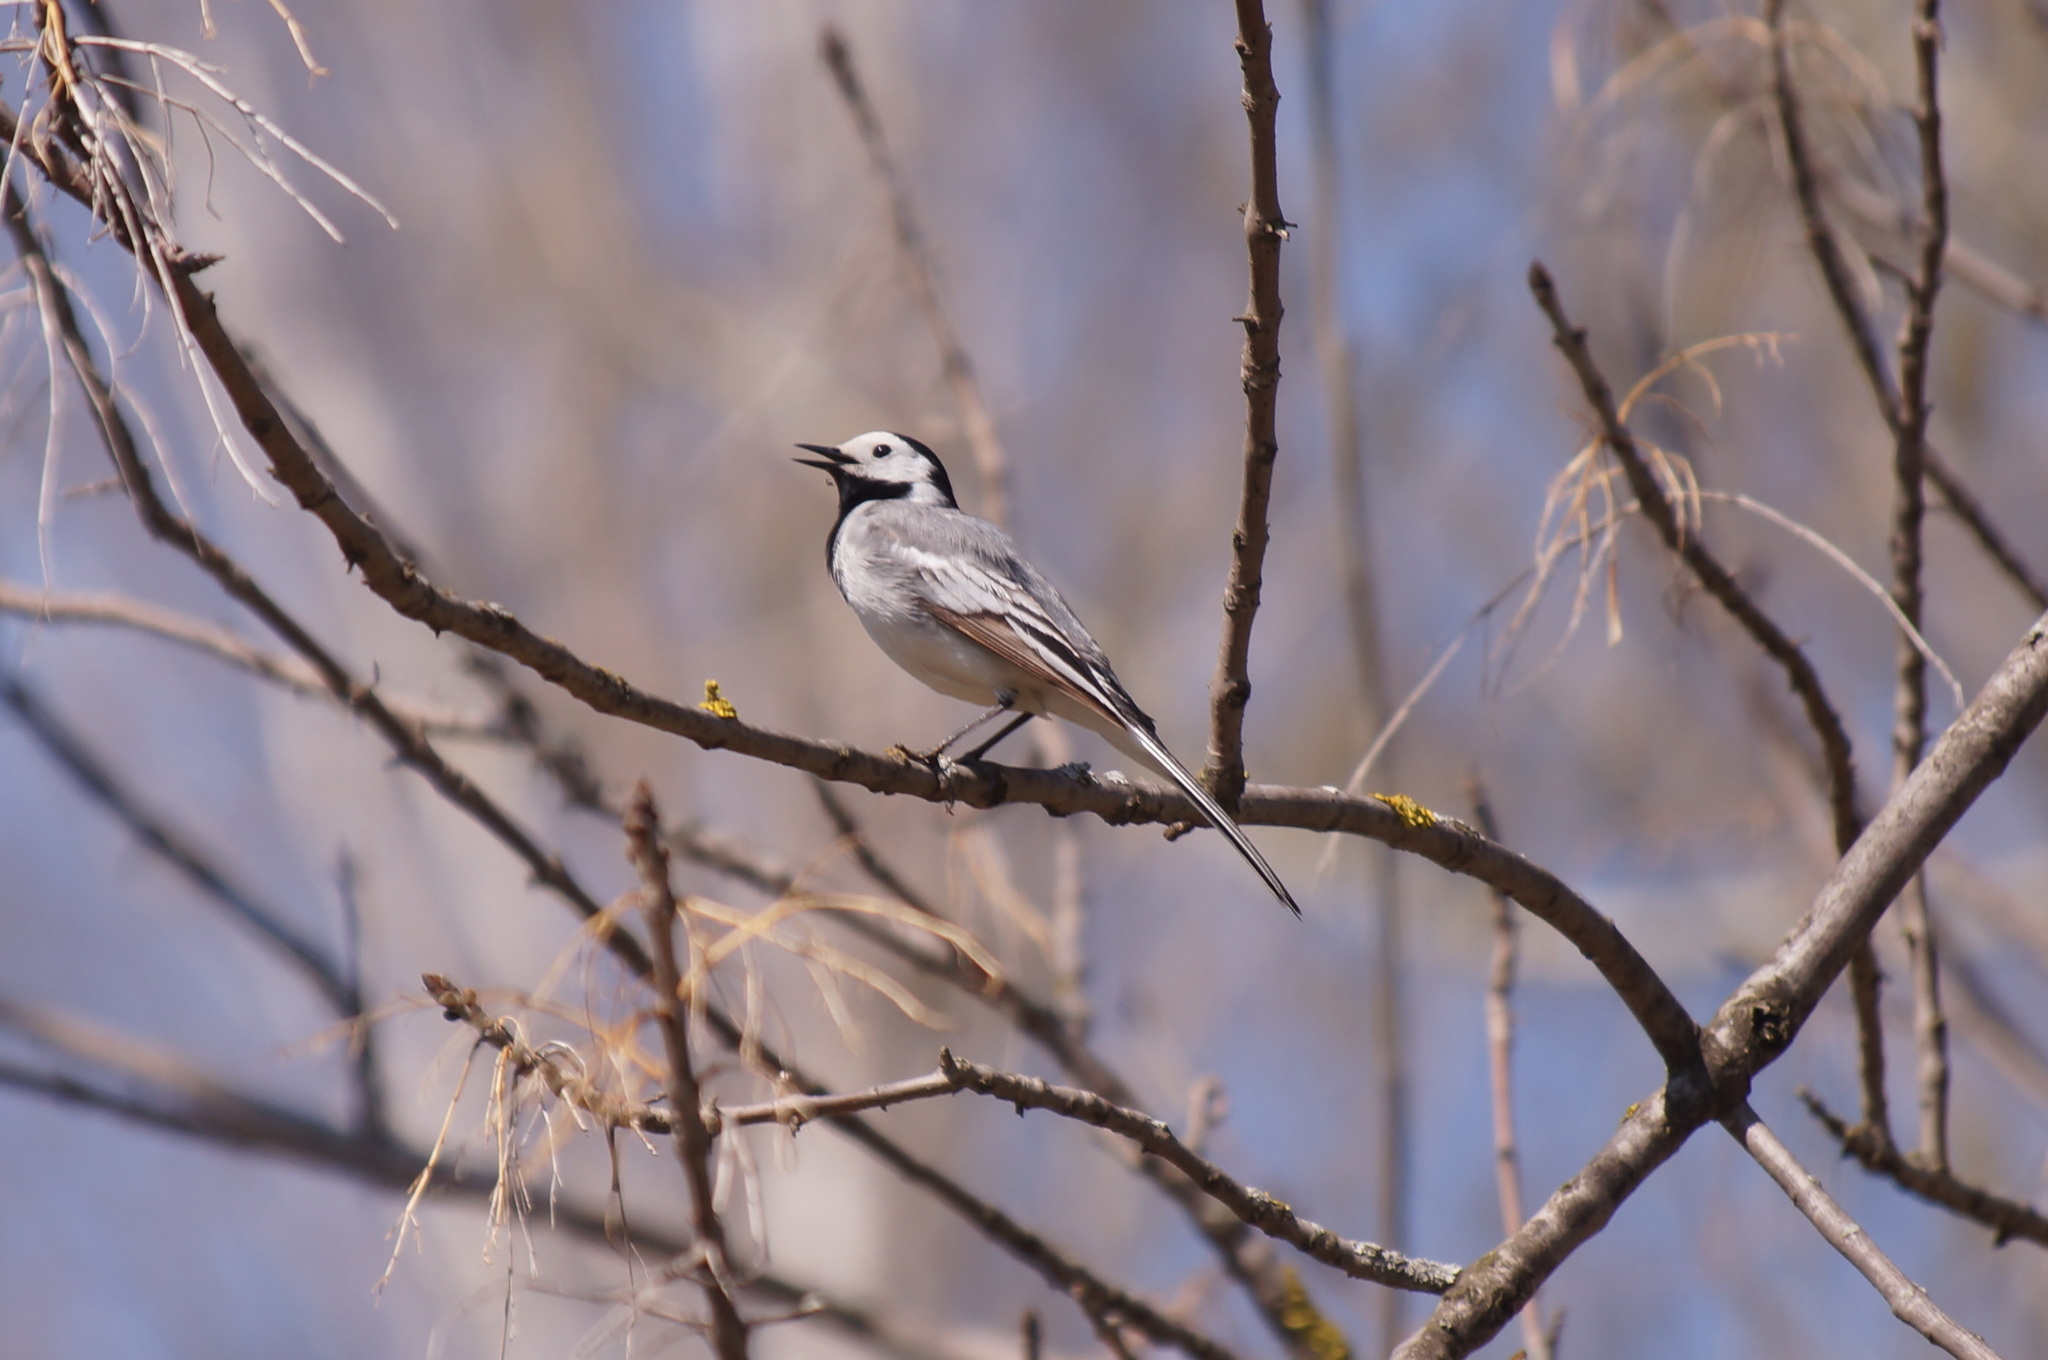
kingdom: Animalia
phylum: Chordata
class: Aves
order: Passeriformes
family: Motacillidae
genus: Motacilla
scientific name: Motacilla alba
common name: White wagtail
